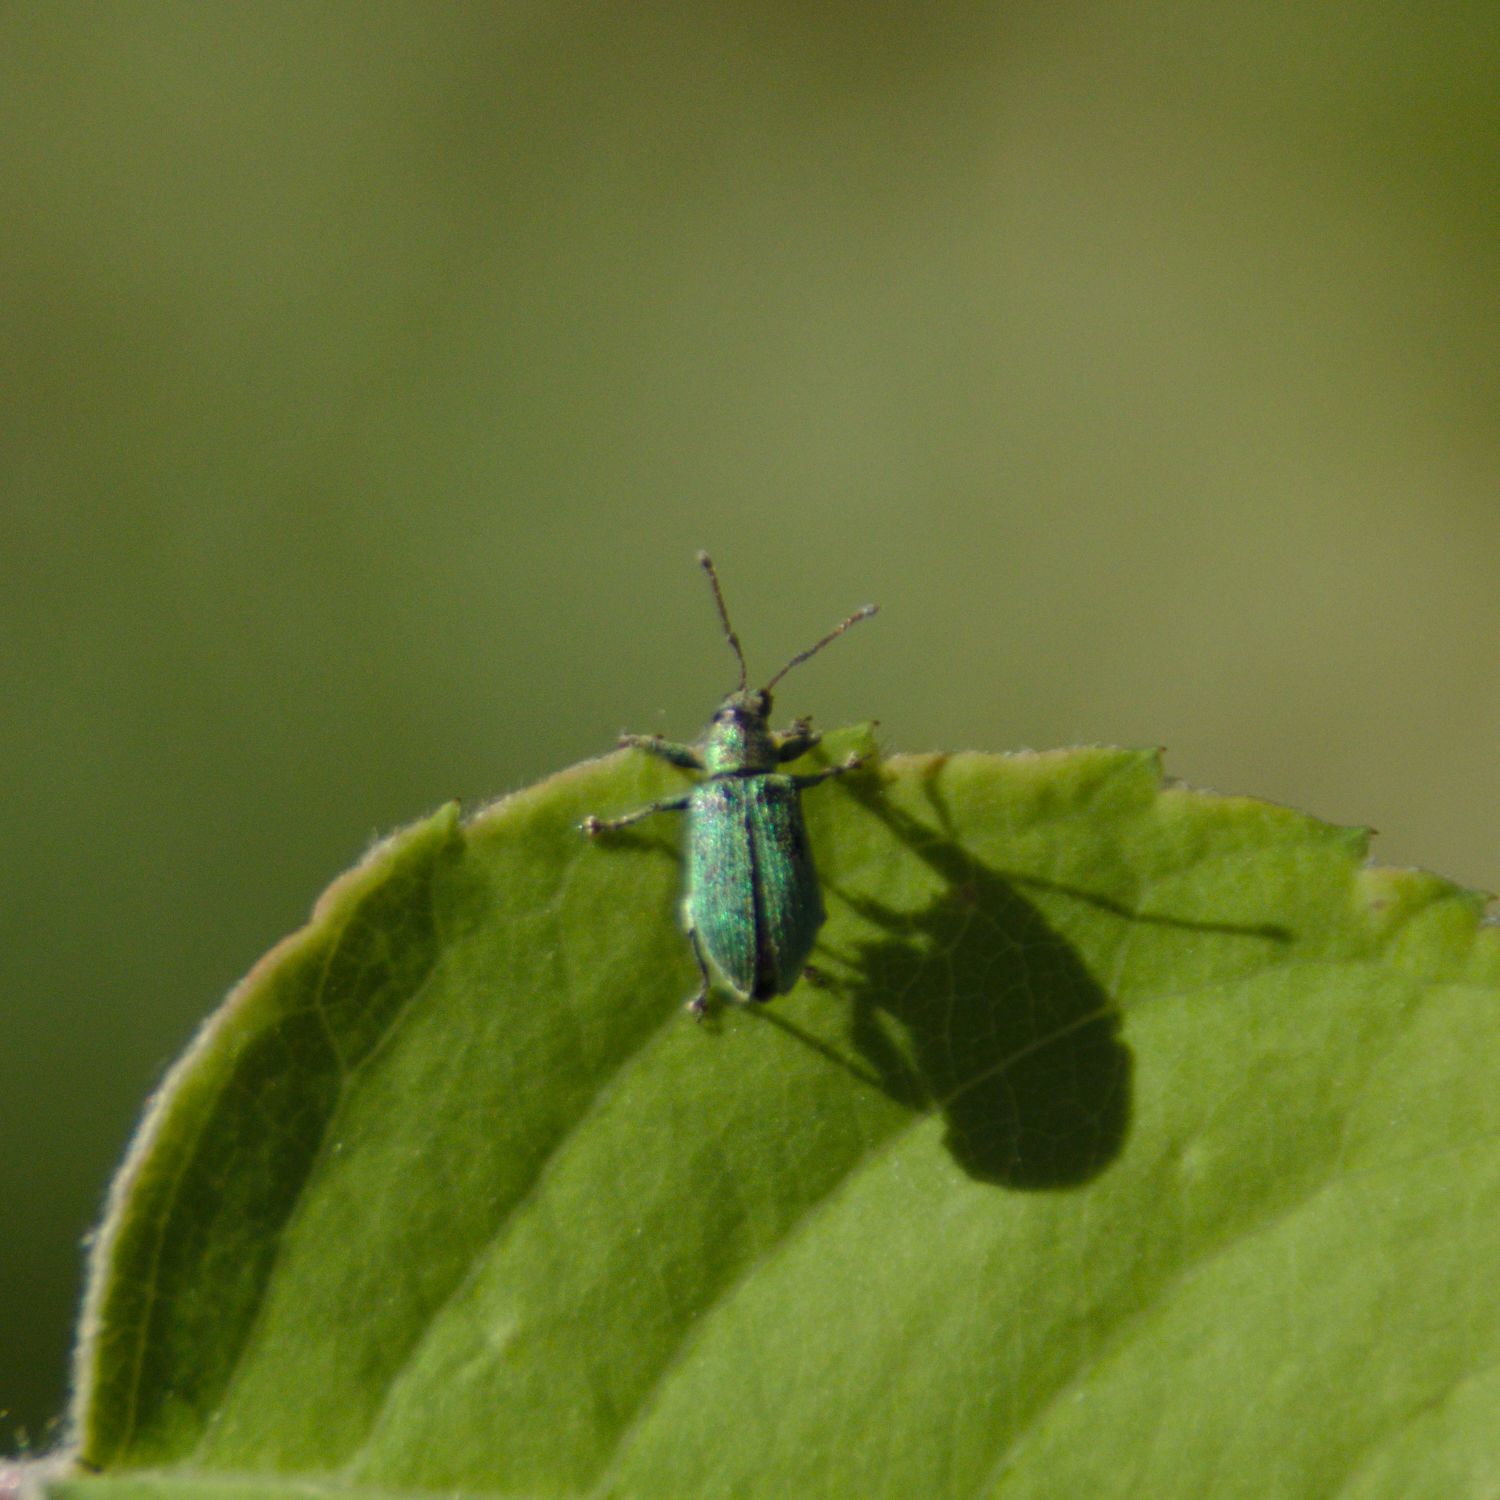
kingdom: Animalia
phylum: Arthropoda
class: Insecta
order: Coleoptera
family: Curculionidae
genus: Phyllobius
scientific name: Phyllobius
